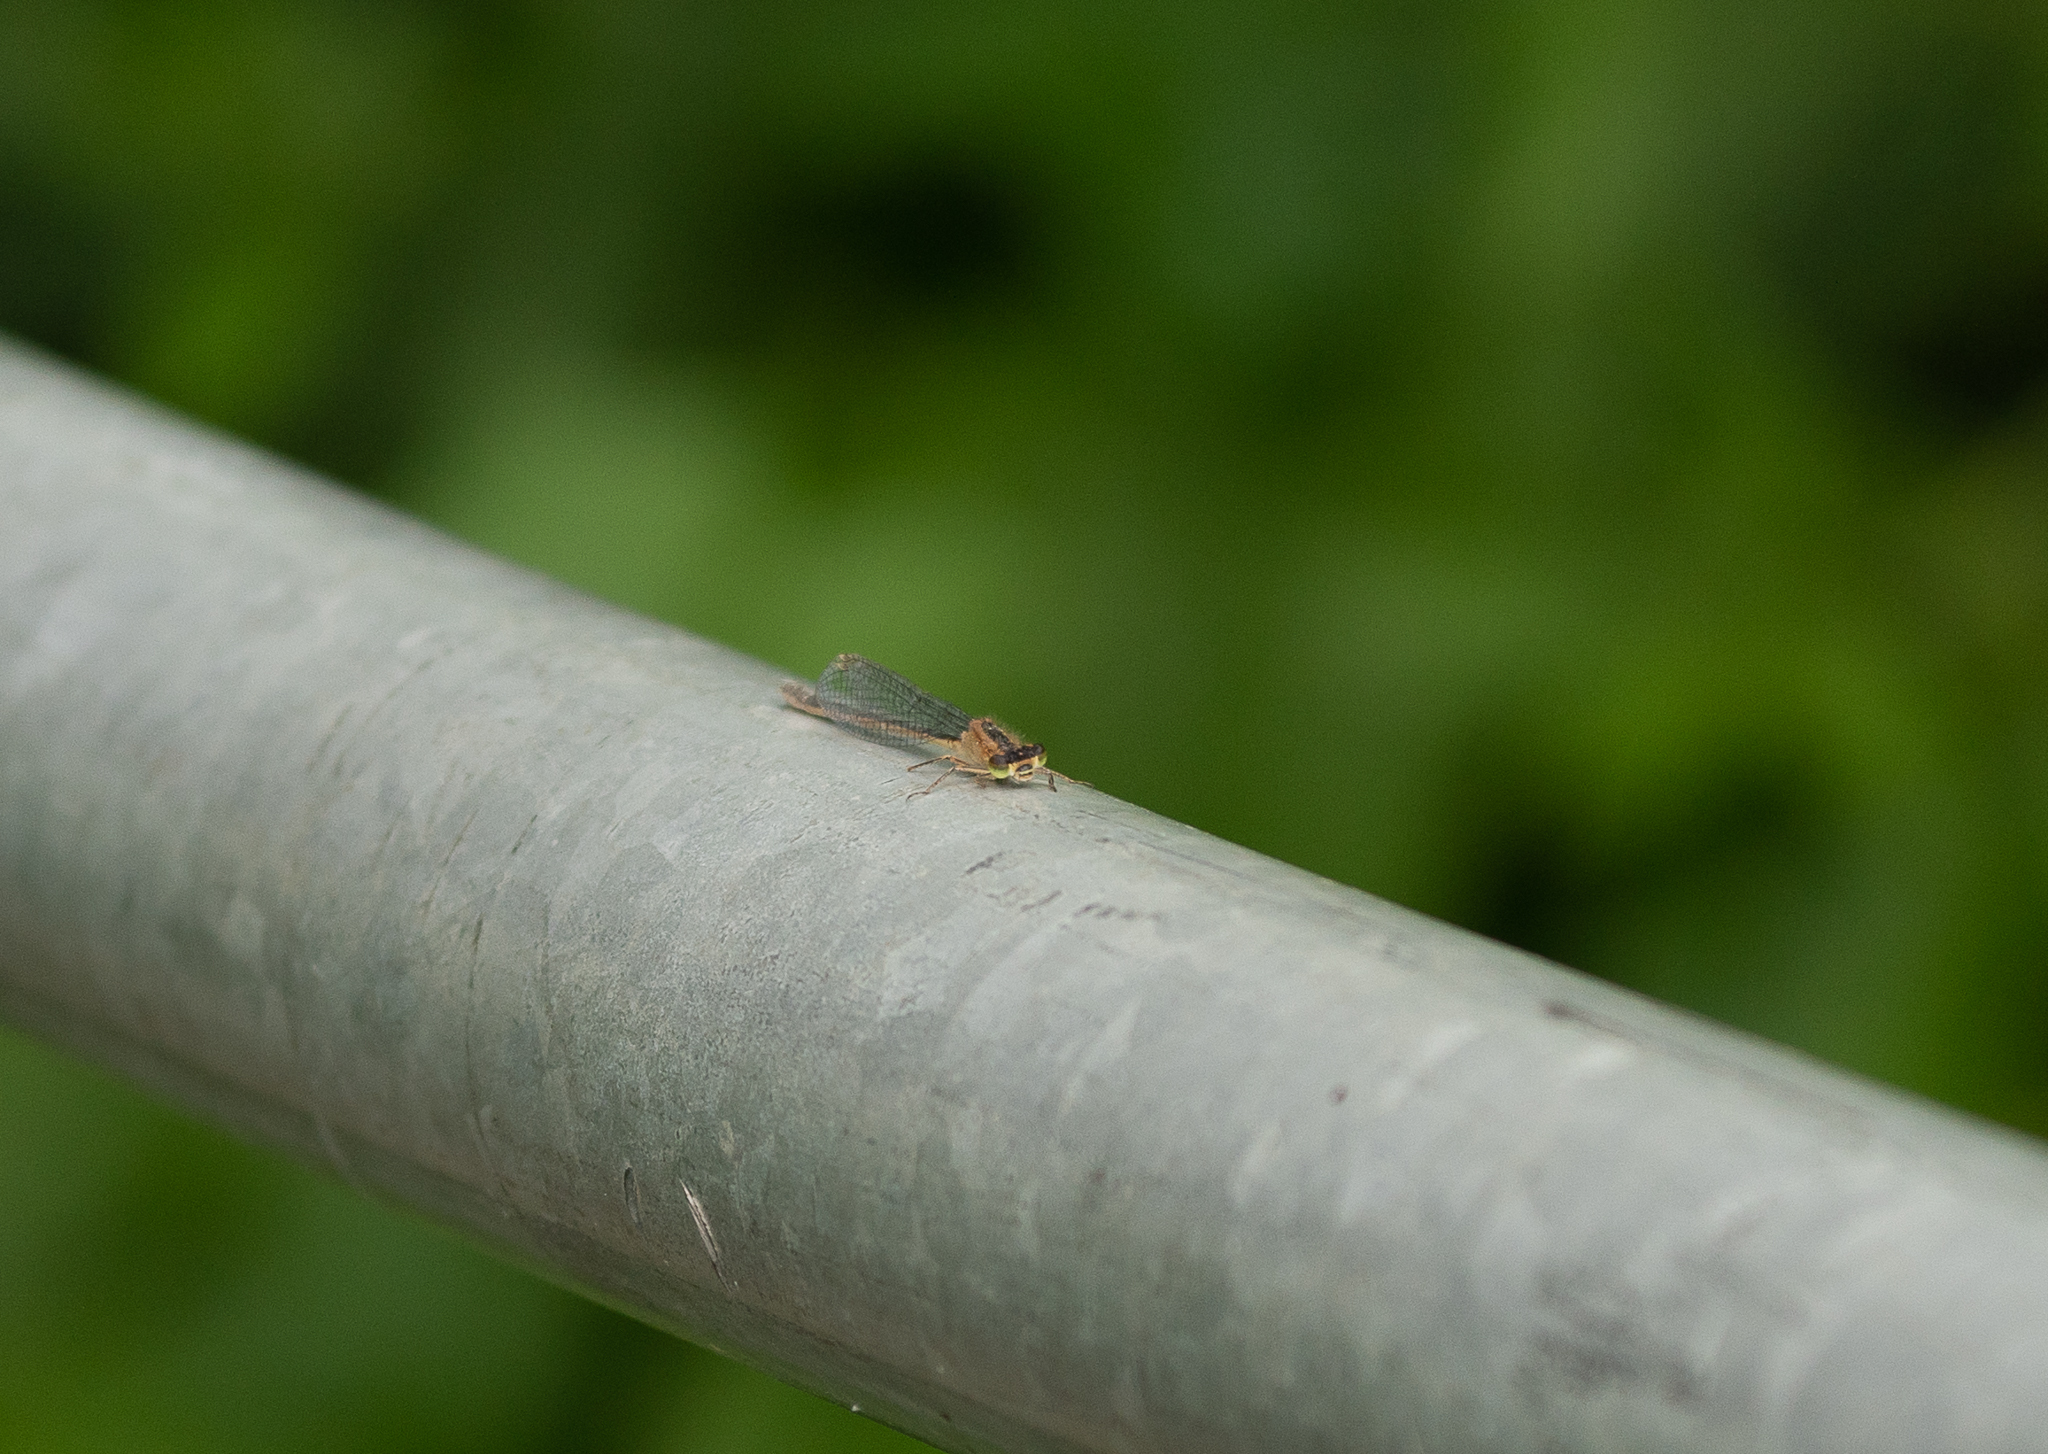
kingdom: Animalia
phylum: Arthropoda
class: Insecta
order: Odonata
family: Coenagrionidae
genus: Ischnura
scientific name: Ischnura elegans
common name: Blue-tailed damselfly
